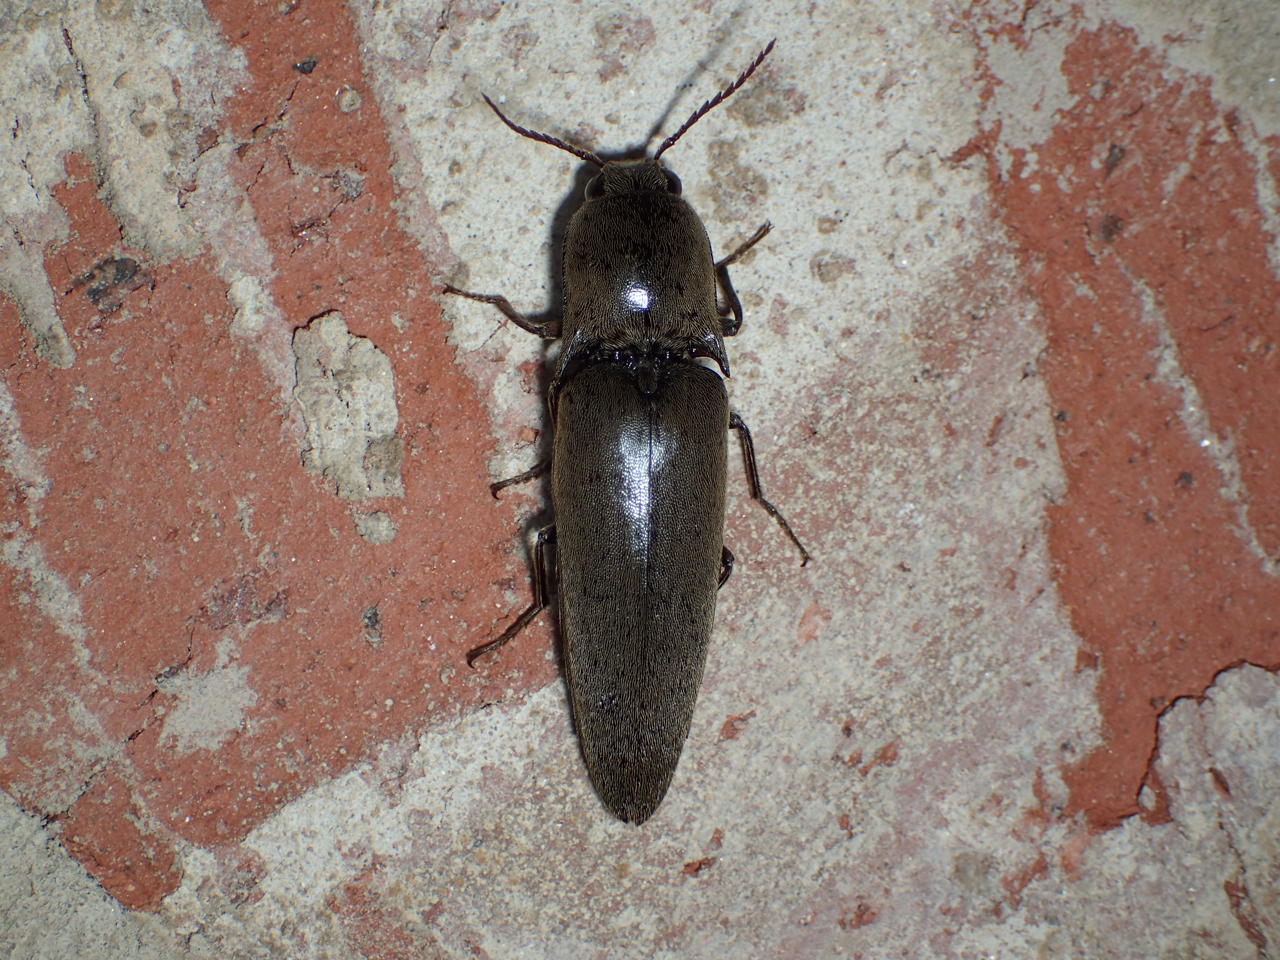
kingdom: Animalia
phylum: Arthropoda
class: Insecta
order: Coleoptera
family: Elateridae
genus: Orthostethus
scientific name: Orthostethus infuscatus
